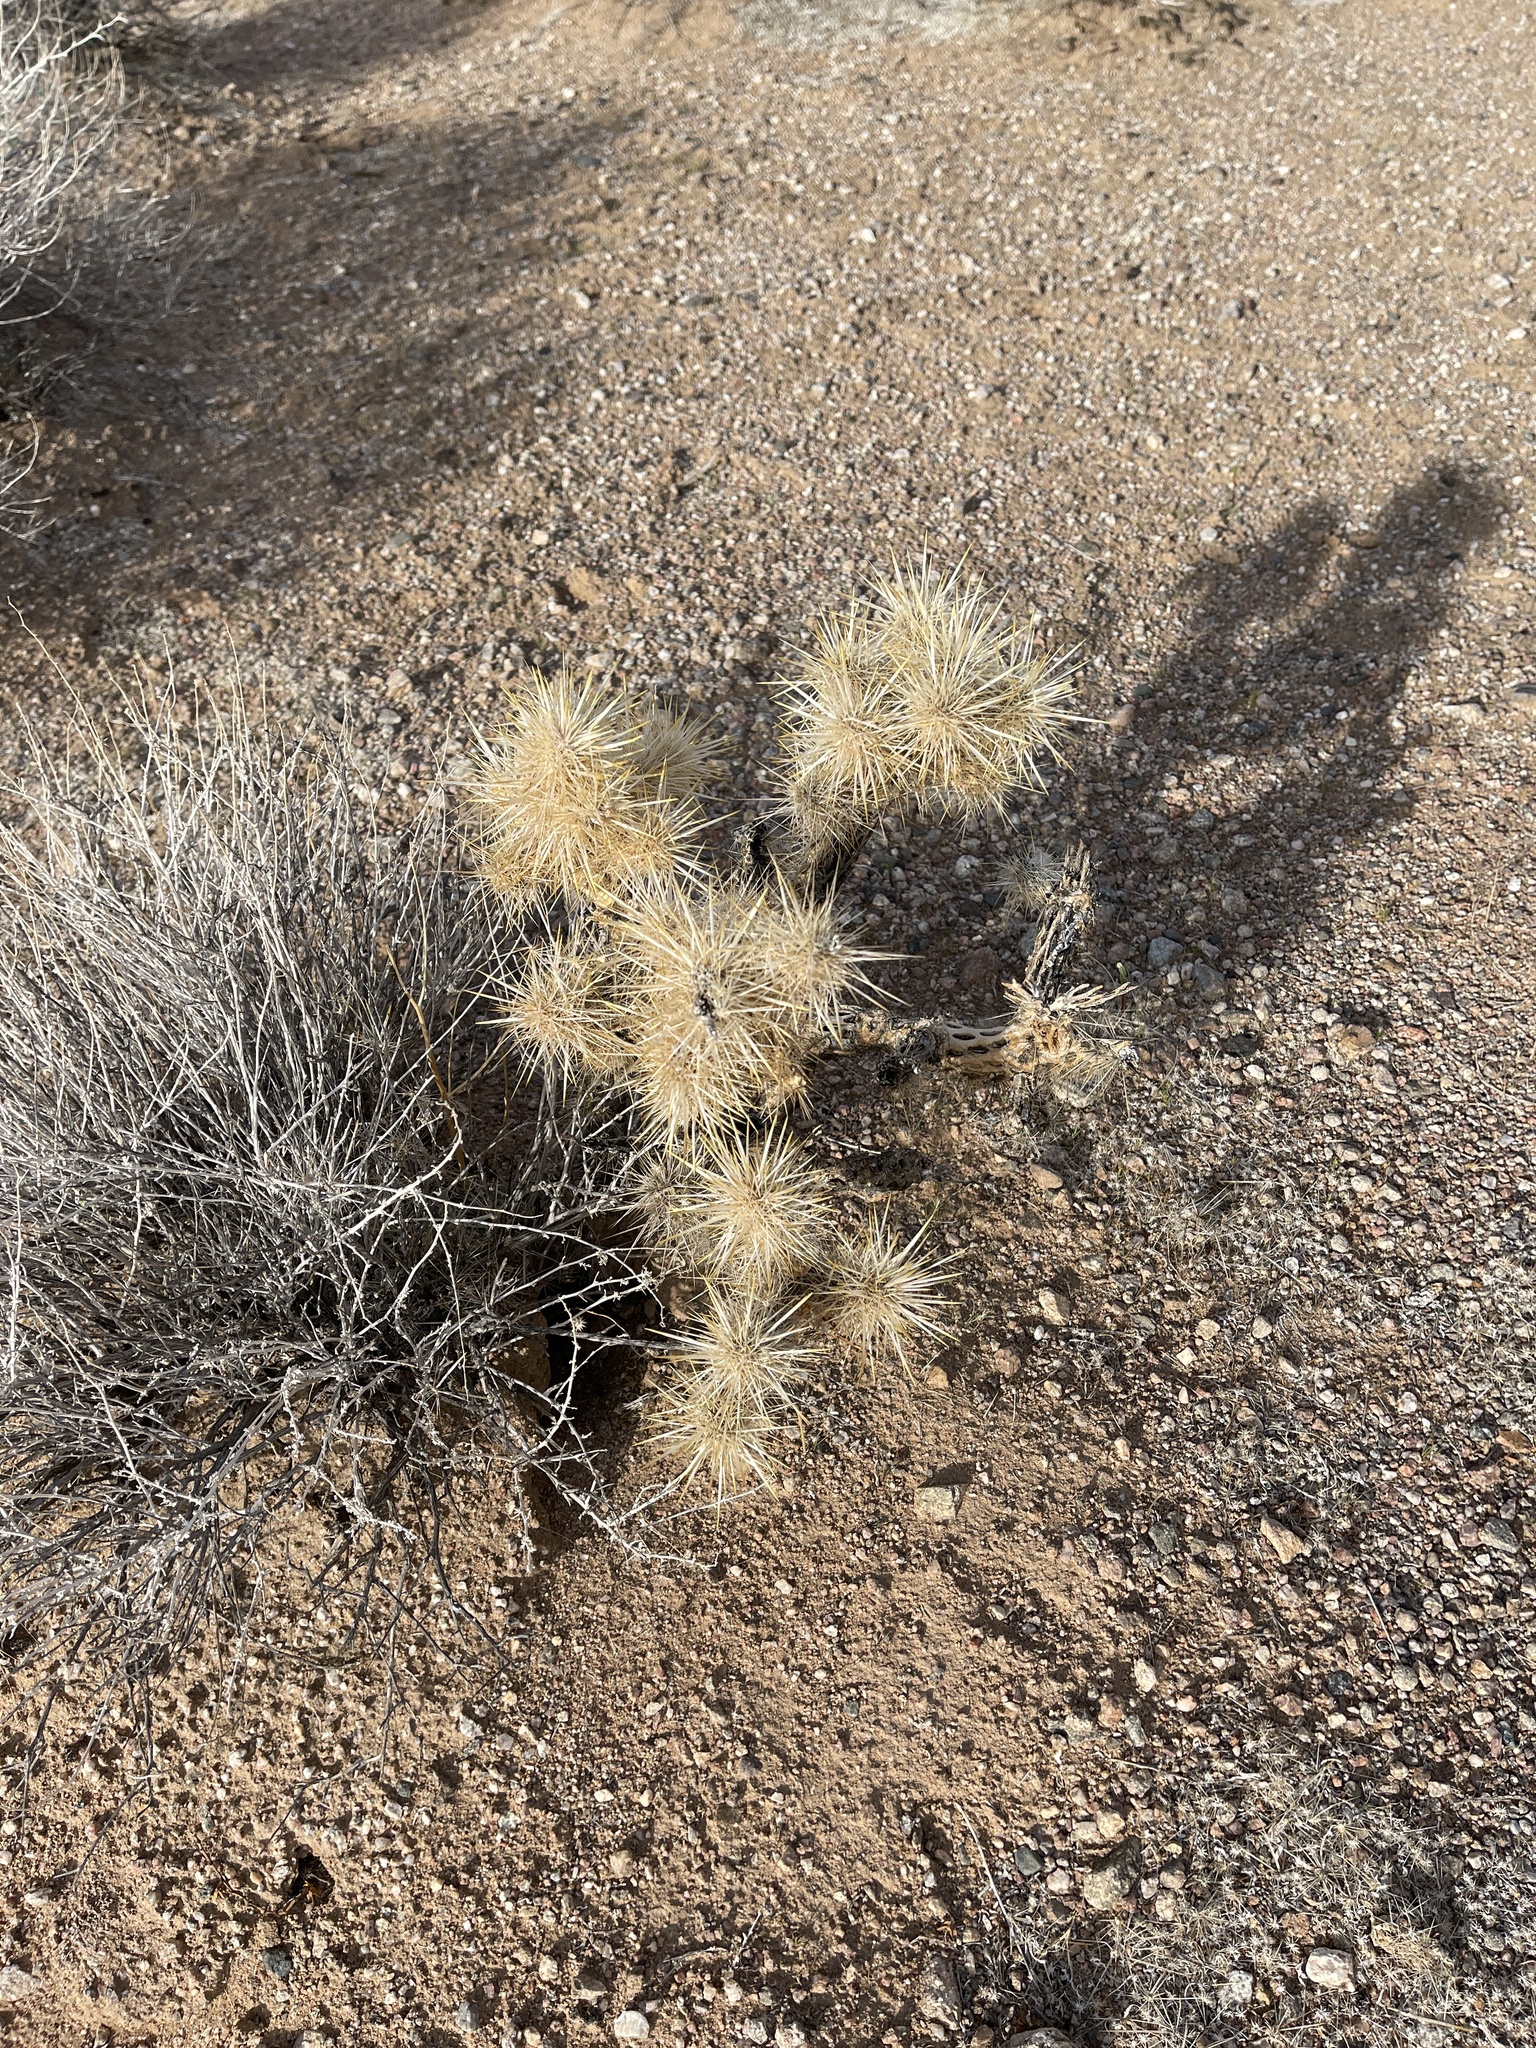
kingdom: Plantae
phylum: Tracheophyta
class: Magnoliopsida
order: Caryophyllales
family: Cactaceae
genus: Cylindropuntia
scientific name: Cylindropuntia echinocarpa
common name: Ground cholla
